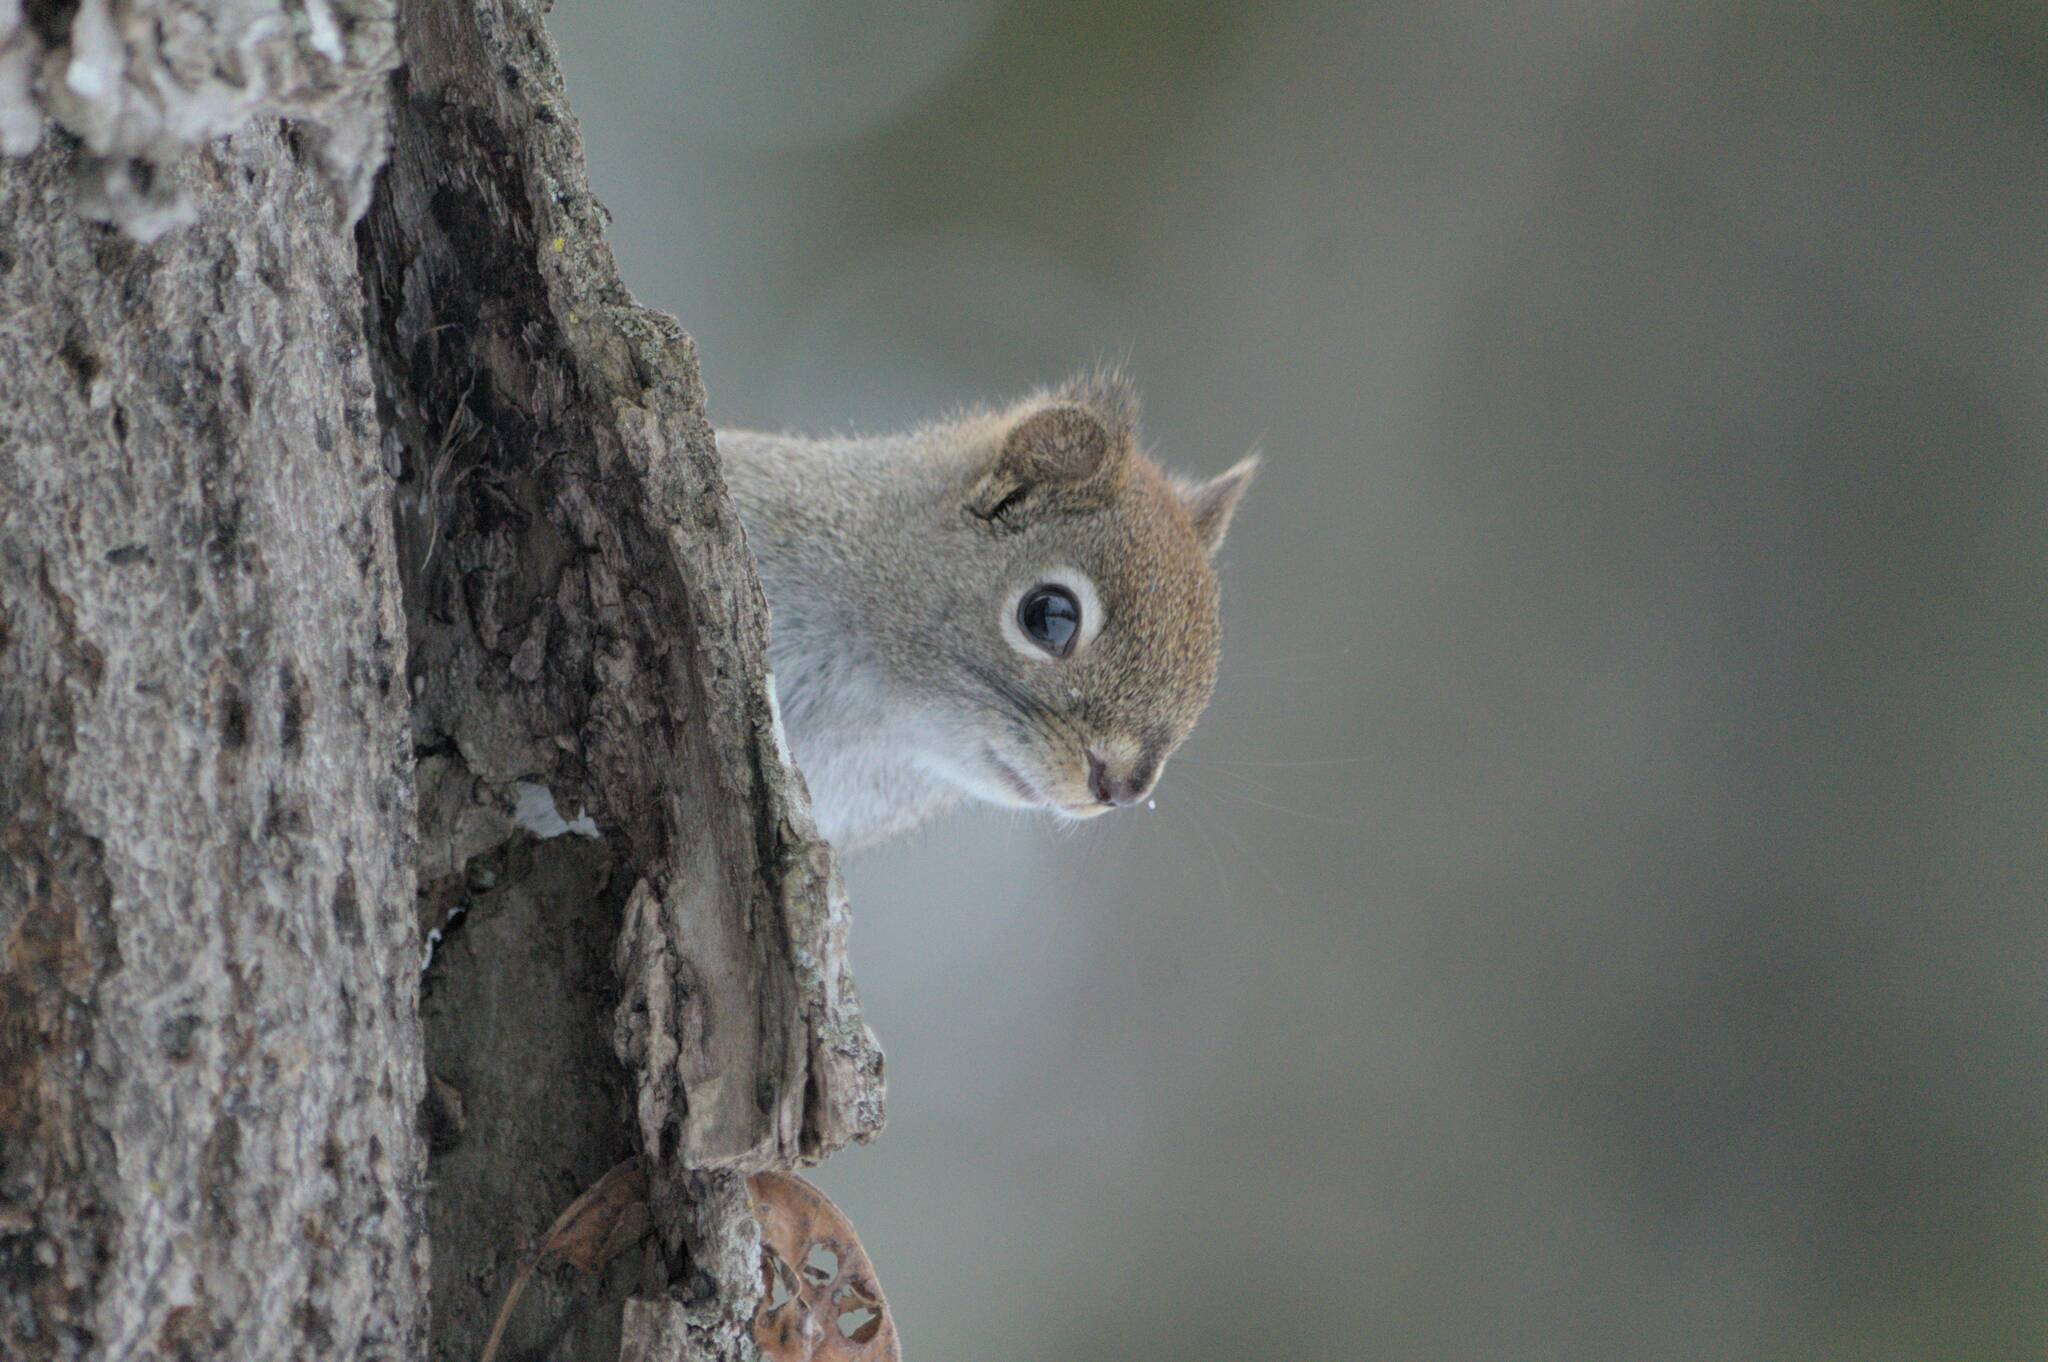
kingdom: Animalia
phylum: Chordata
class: Mammalia
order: Rodentia
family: Sciuridae
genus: Tamiasciurus
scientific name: Tamiasciurus hudsonicus
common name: Red squirrel
